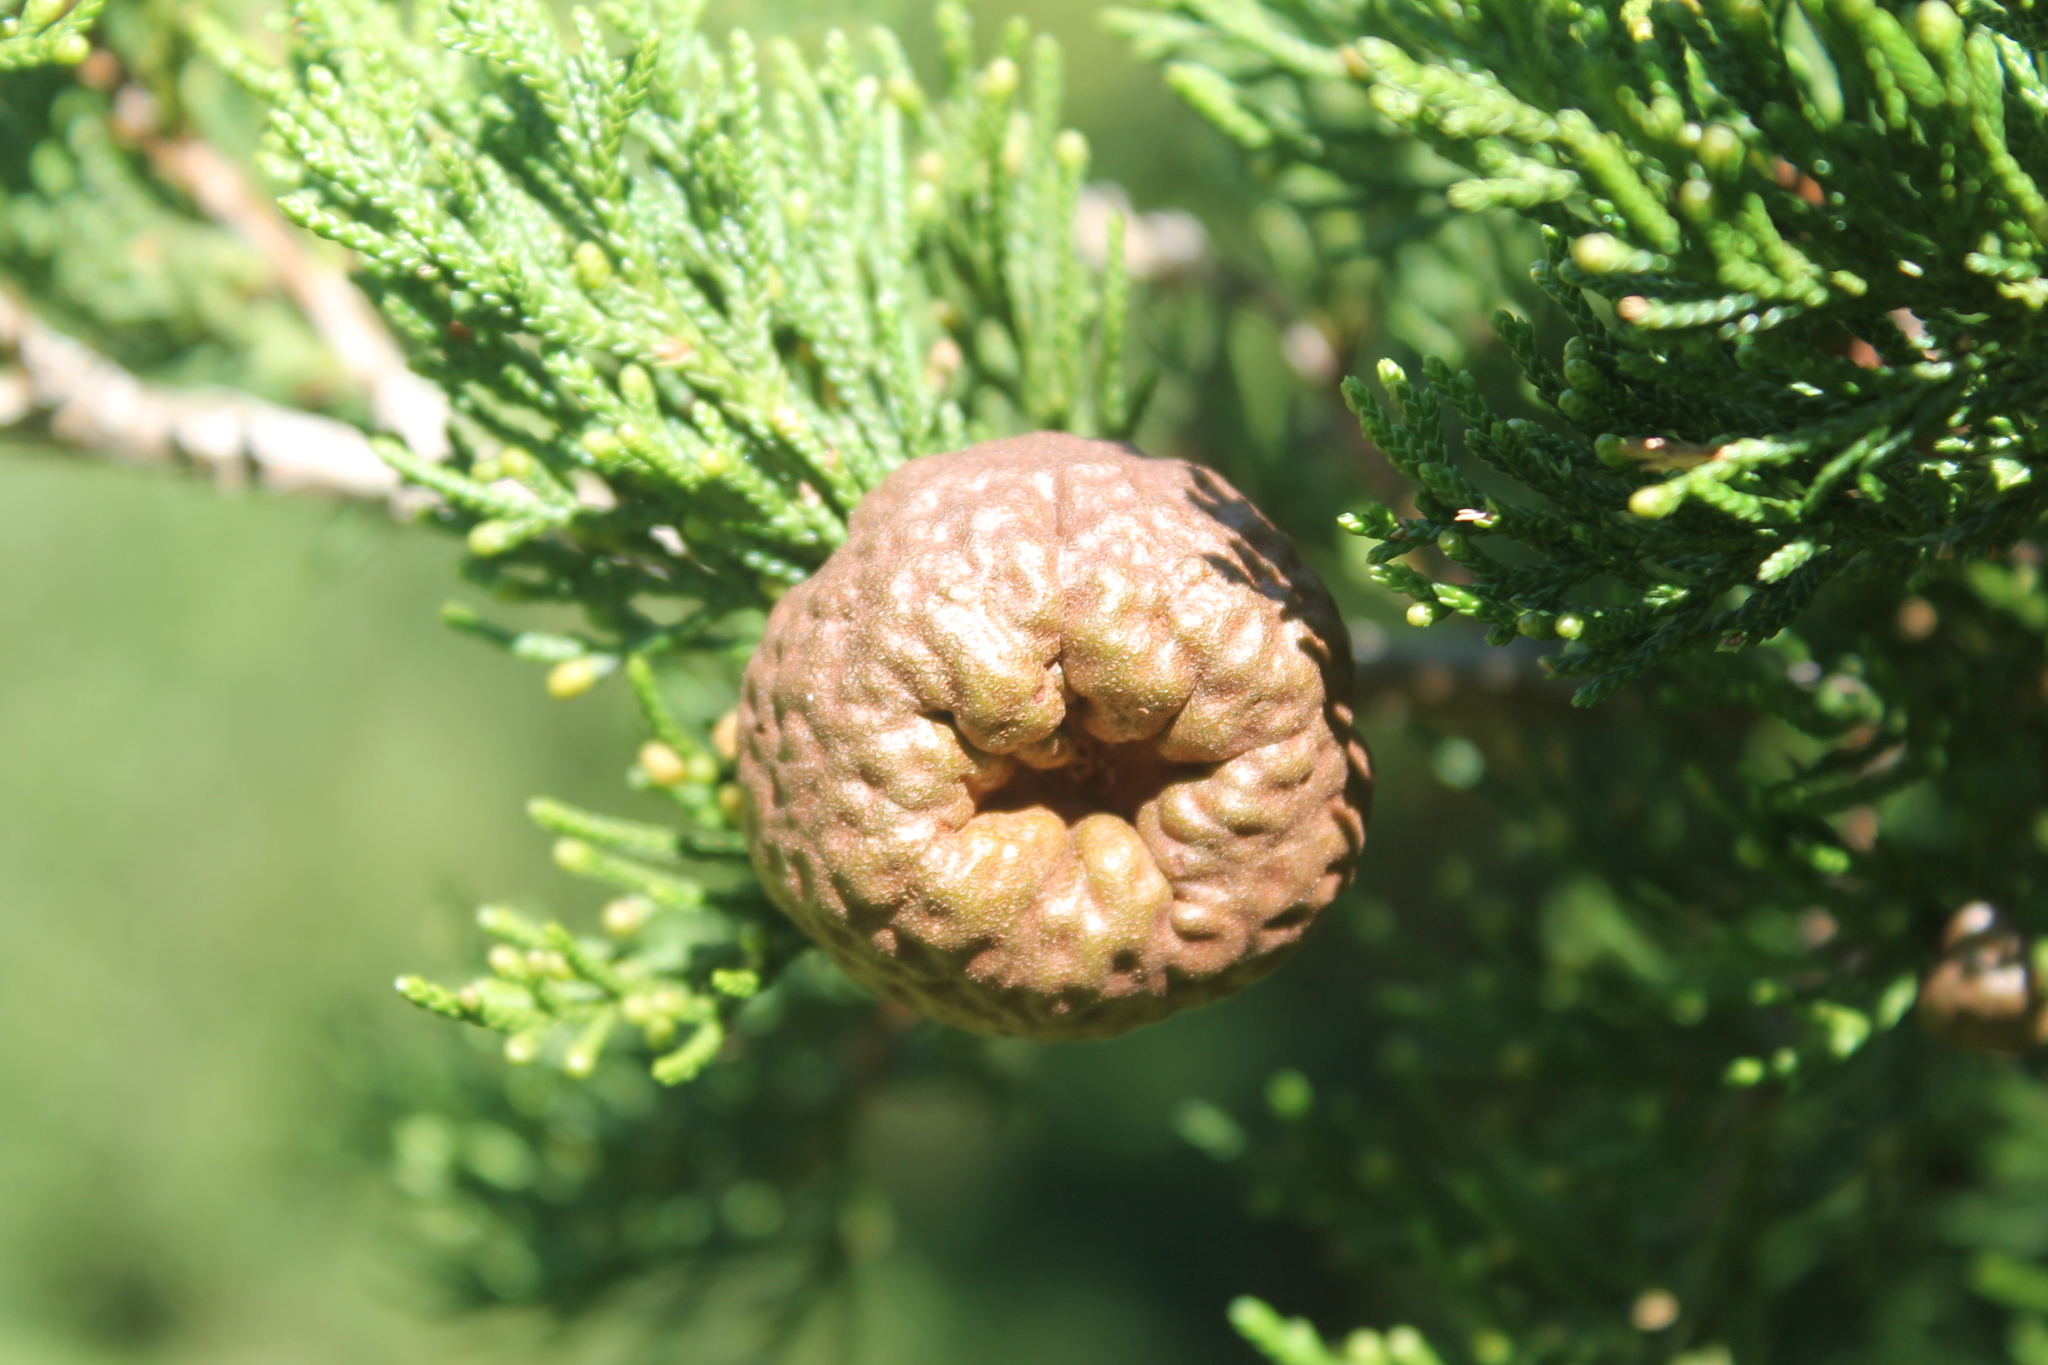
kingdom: Fungi
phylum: Basidiomycota
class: Pucciniomycetes
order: Pucciniales
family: Gymnosporangiaceae
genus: Gymnosporangium
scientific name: Gymnosporangium juniperi-virginianae
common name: Juniper-apple rust
